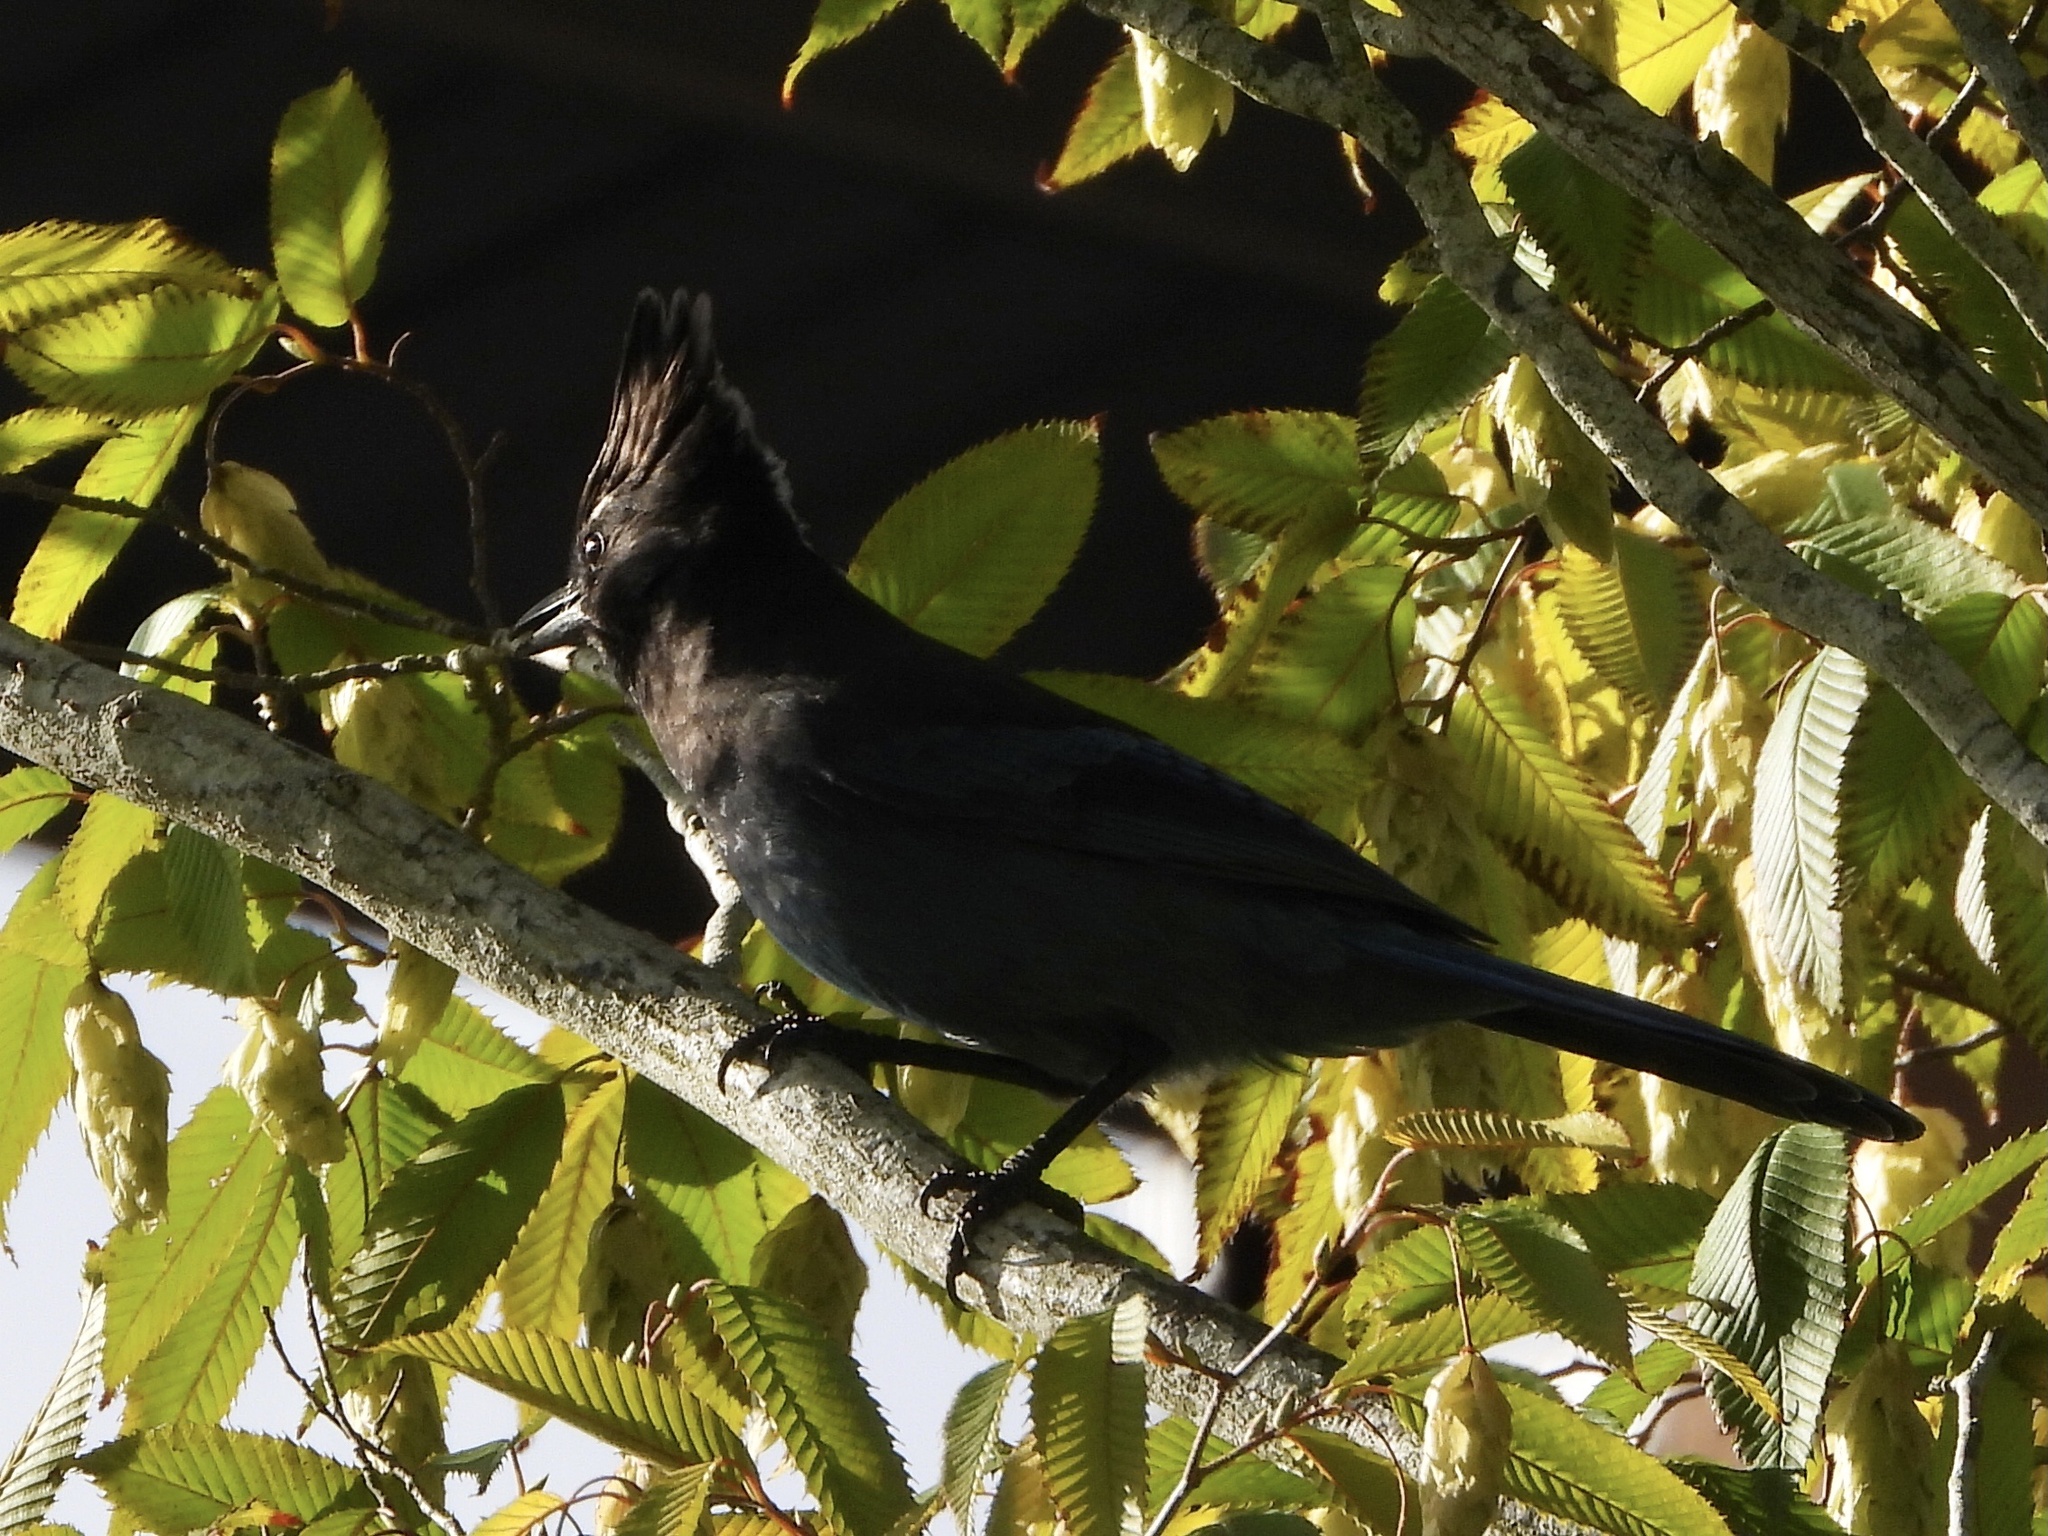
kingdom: Animalia
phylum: Chordata
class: Aves
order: Passeriformes
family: Corvidae
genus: Cyanocitta
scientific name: Cyanocitta stelleri
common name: Steller's jay
